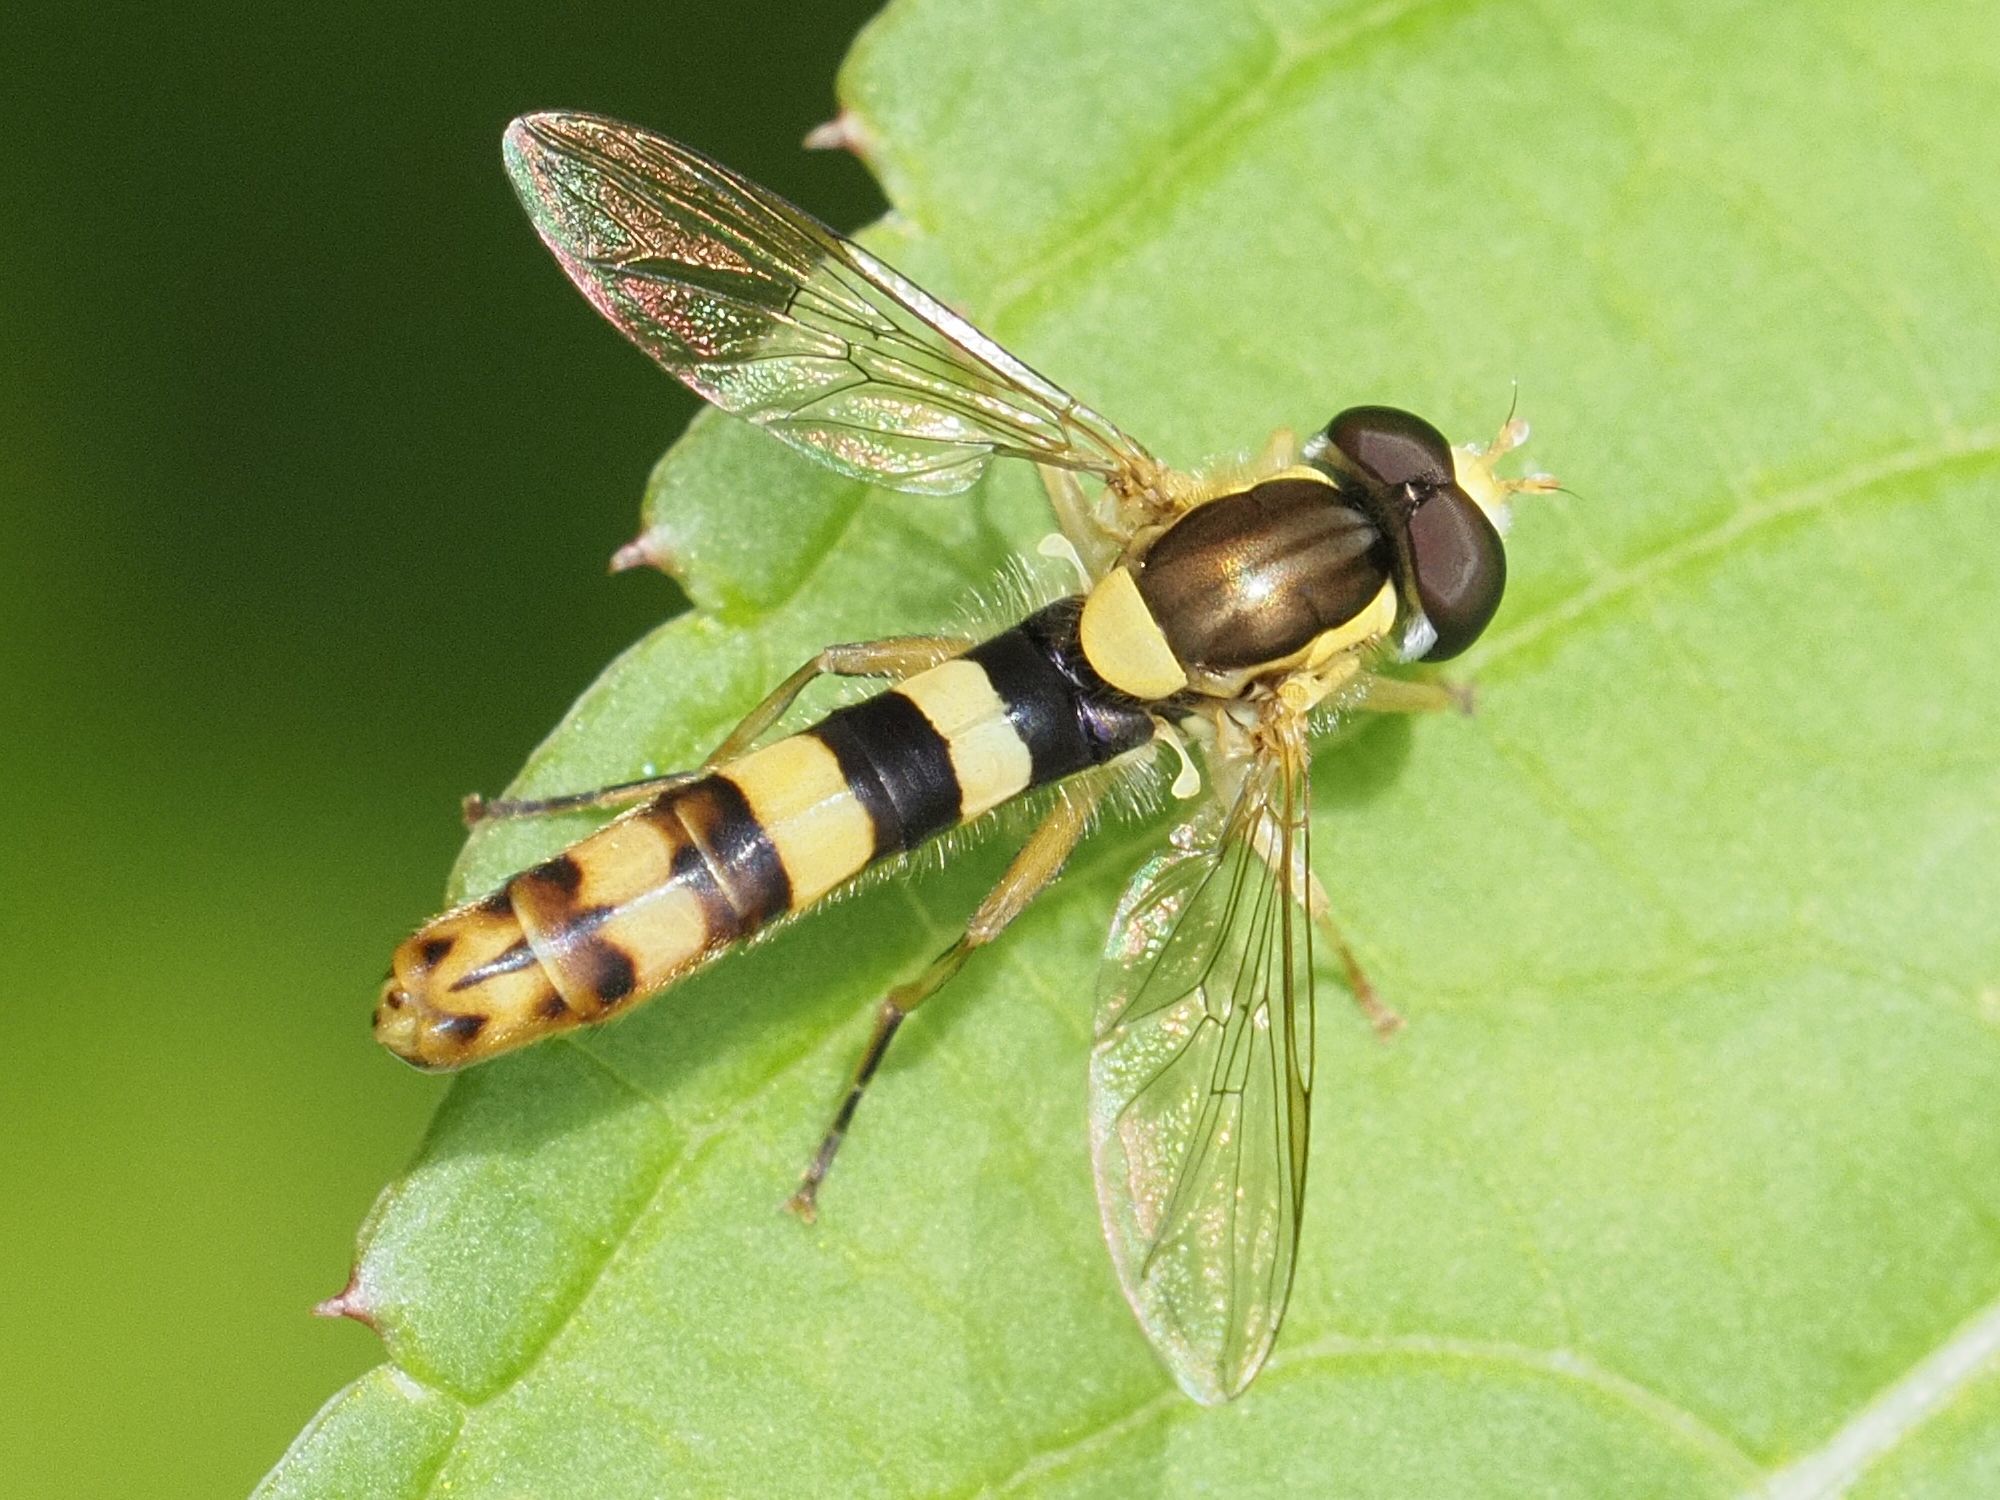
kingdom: Animalia
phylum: Arthropoda
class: Insecta
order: Diptera
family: Syrphidae
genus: Sphaerophoria
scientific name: Sphaerophoria scripta
